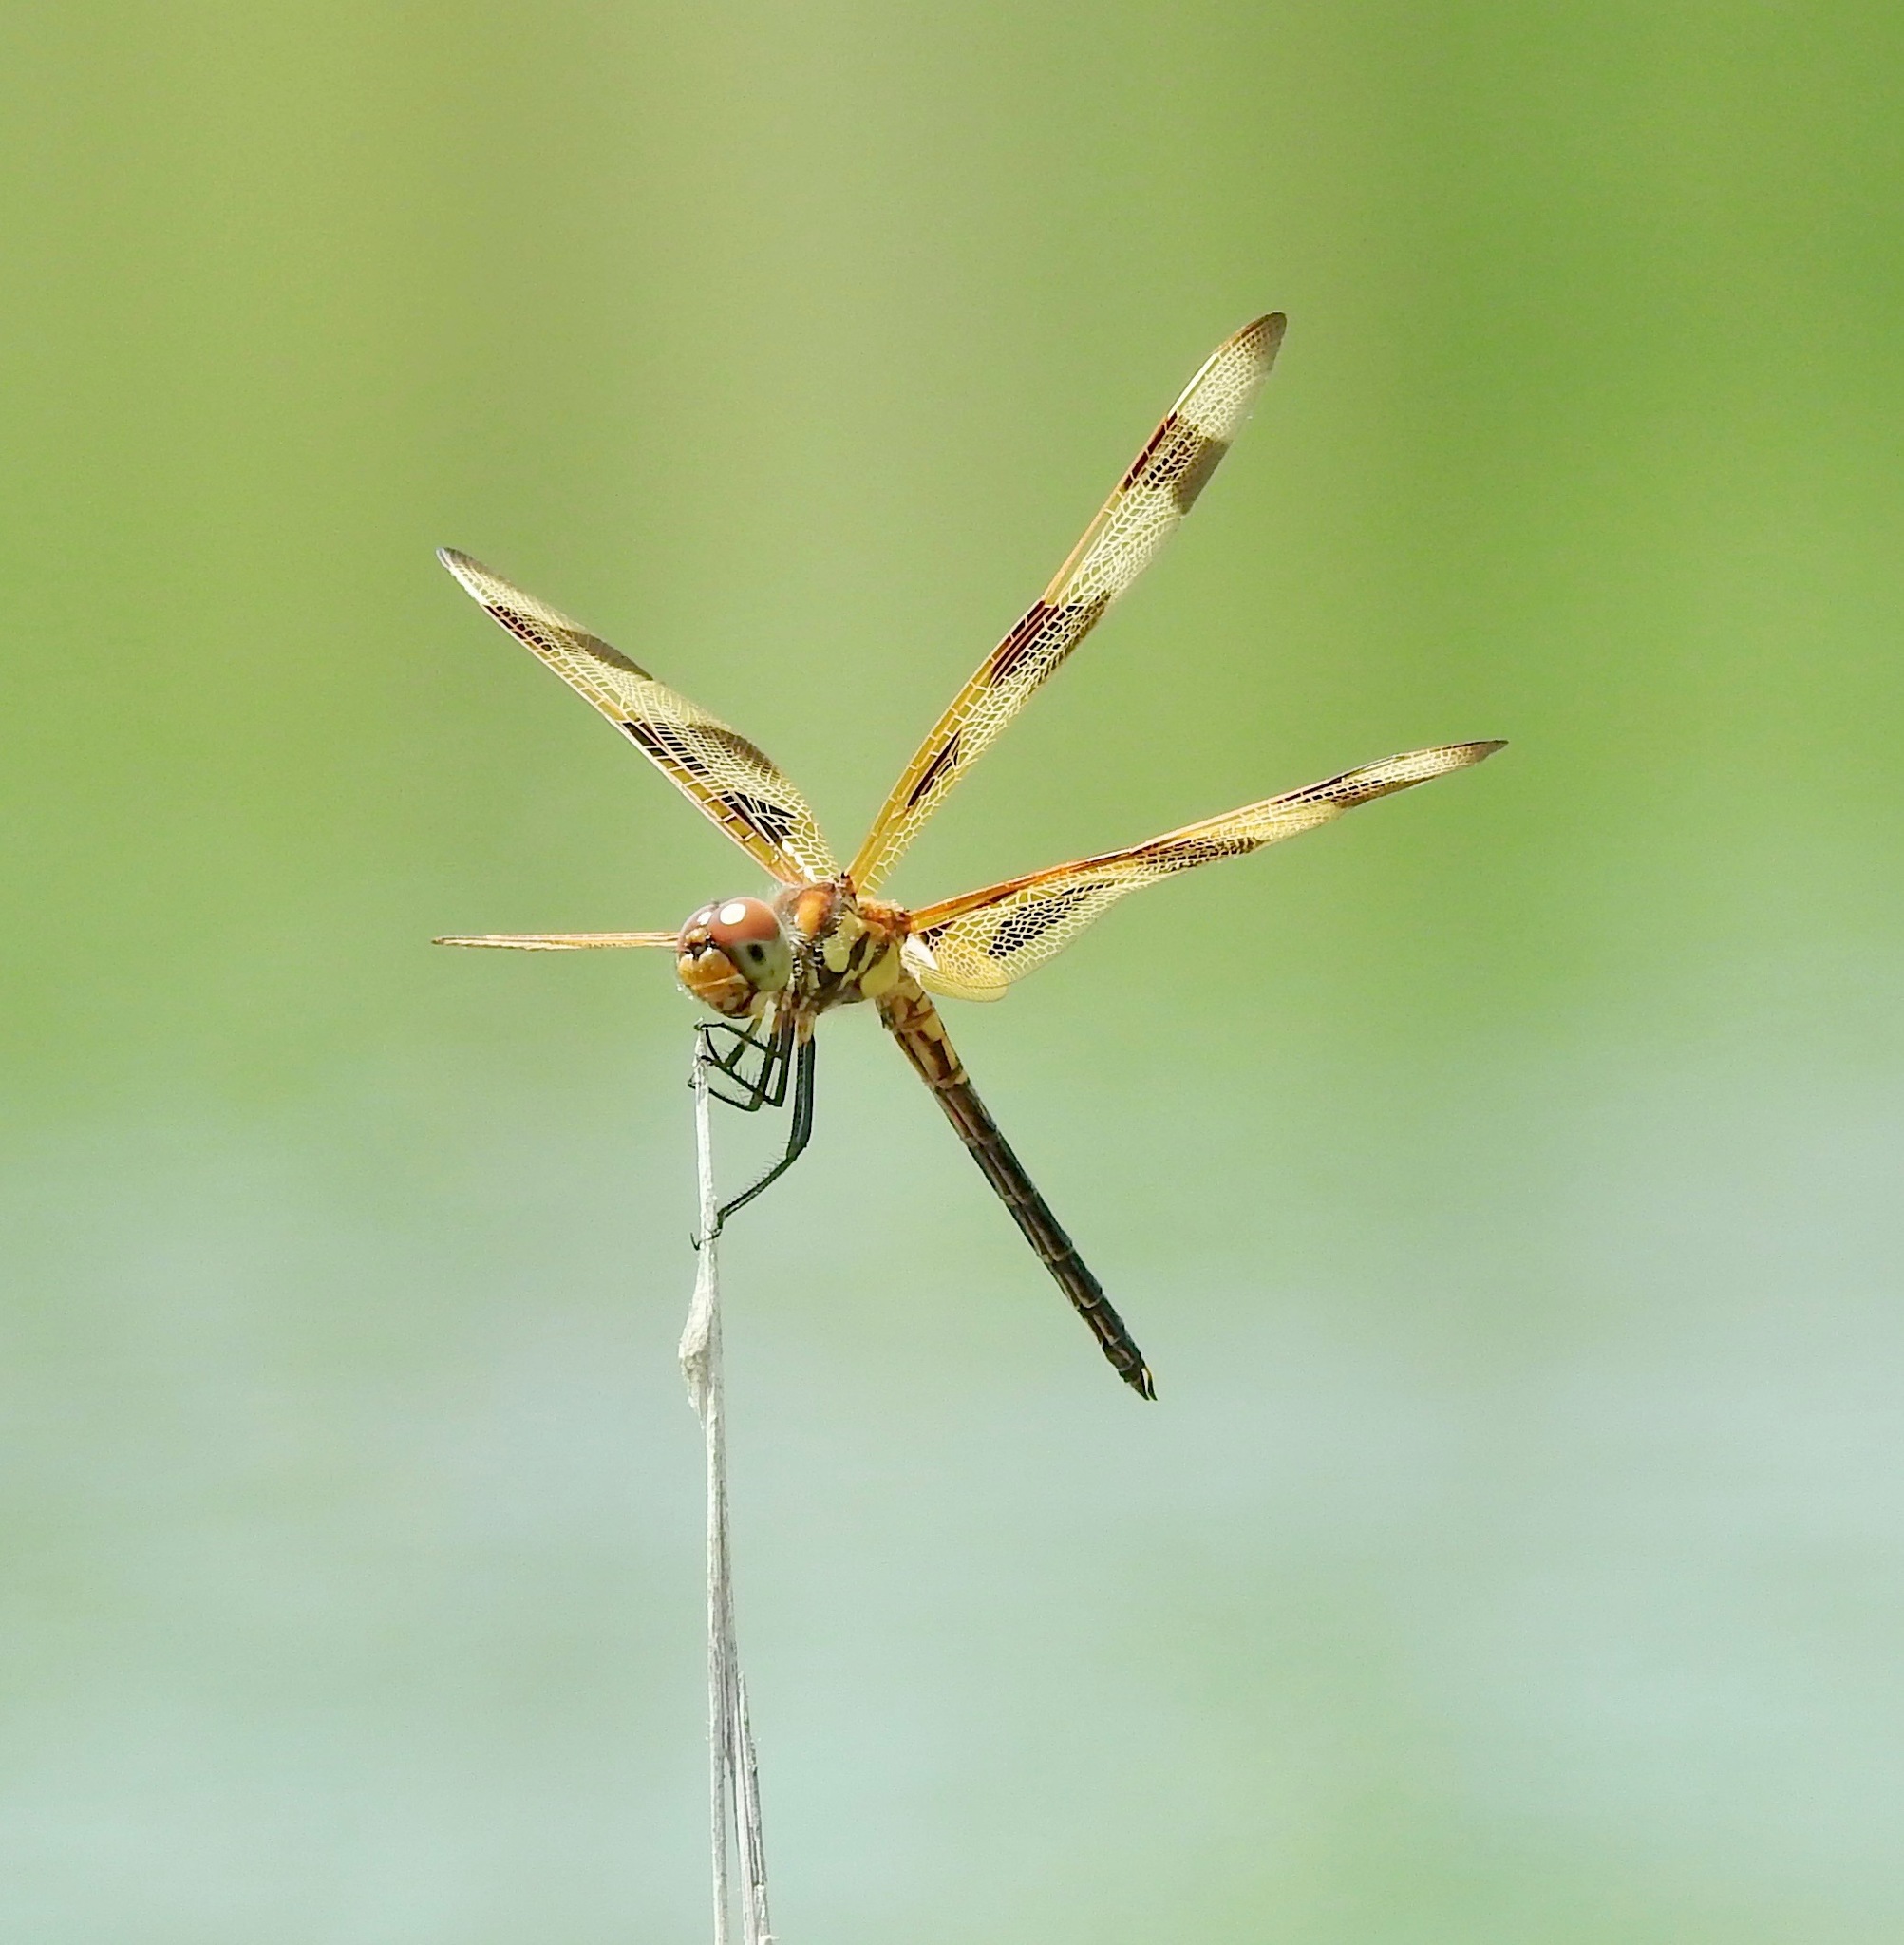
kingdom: Animalia
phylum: Arthropoda
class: Insecta
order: Odonata
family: Libellulidae
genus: Celithemis
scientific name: Celithemis eponina
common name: Halloween pennant
